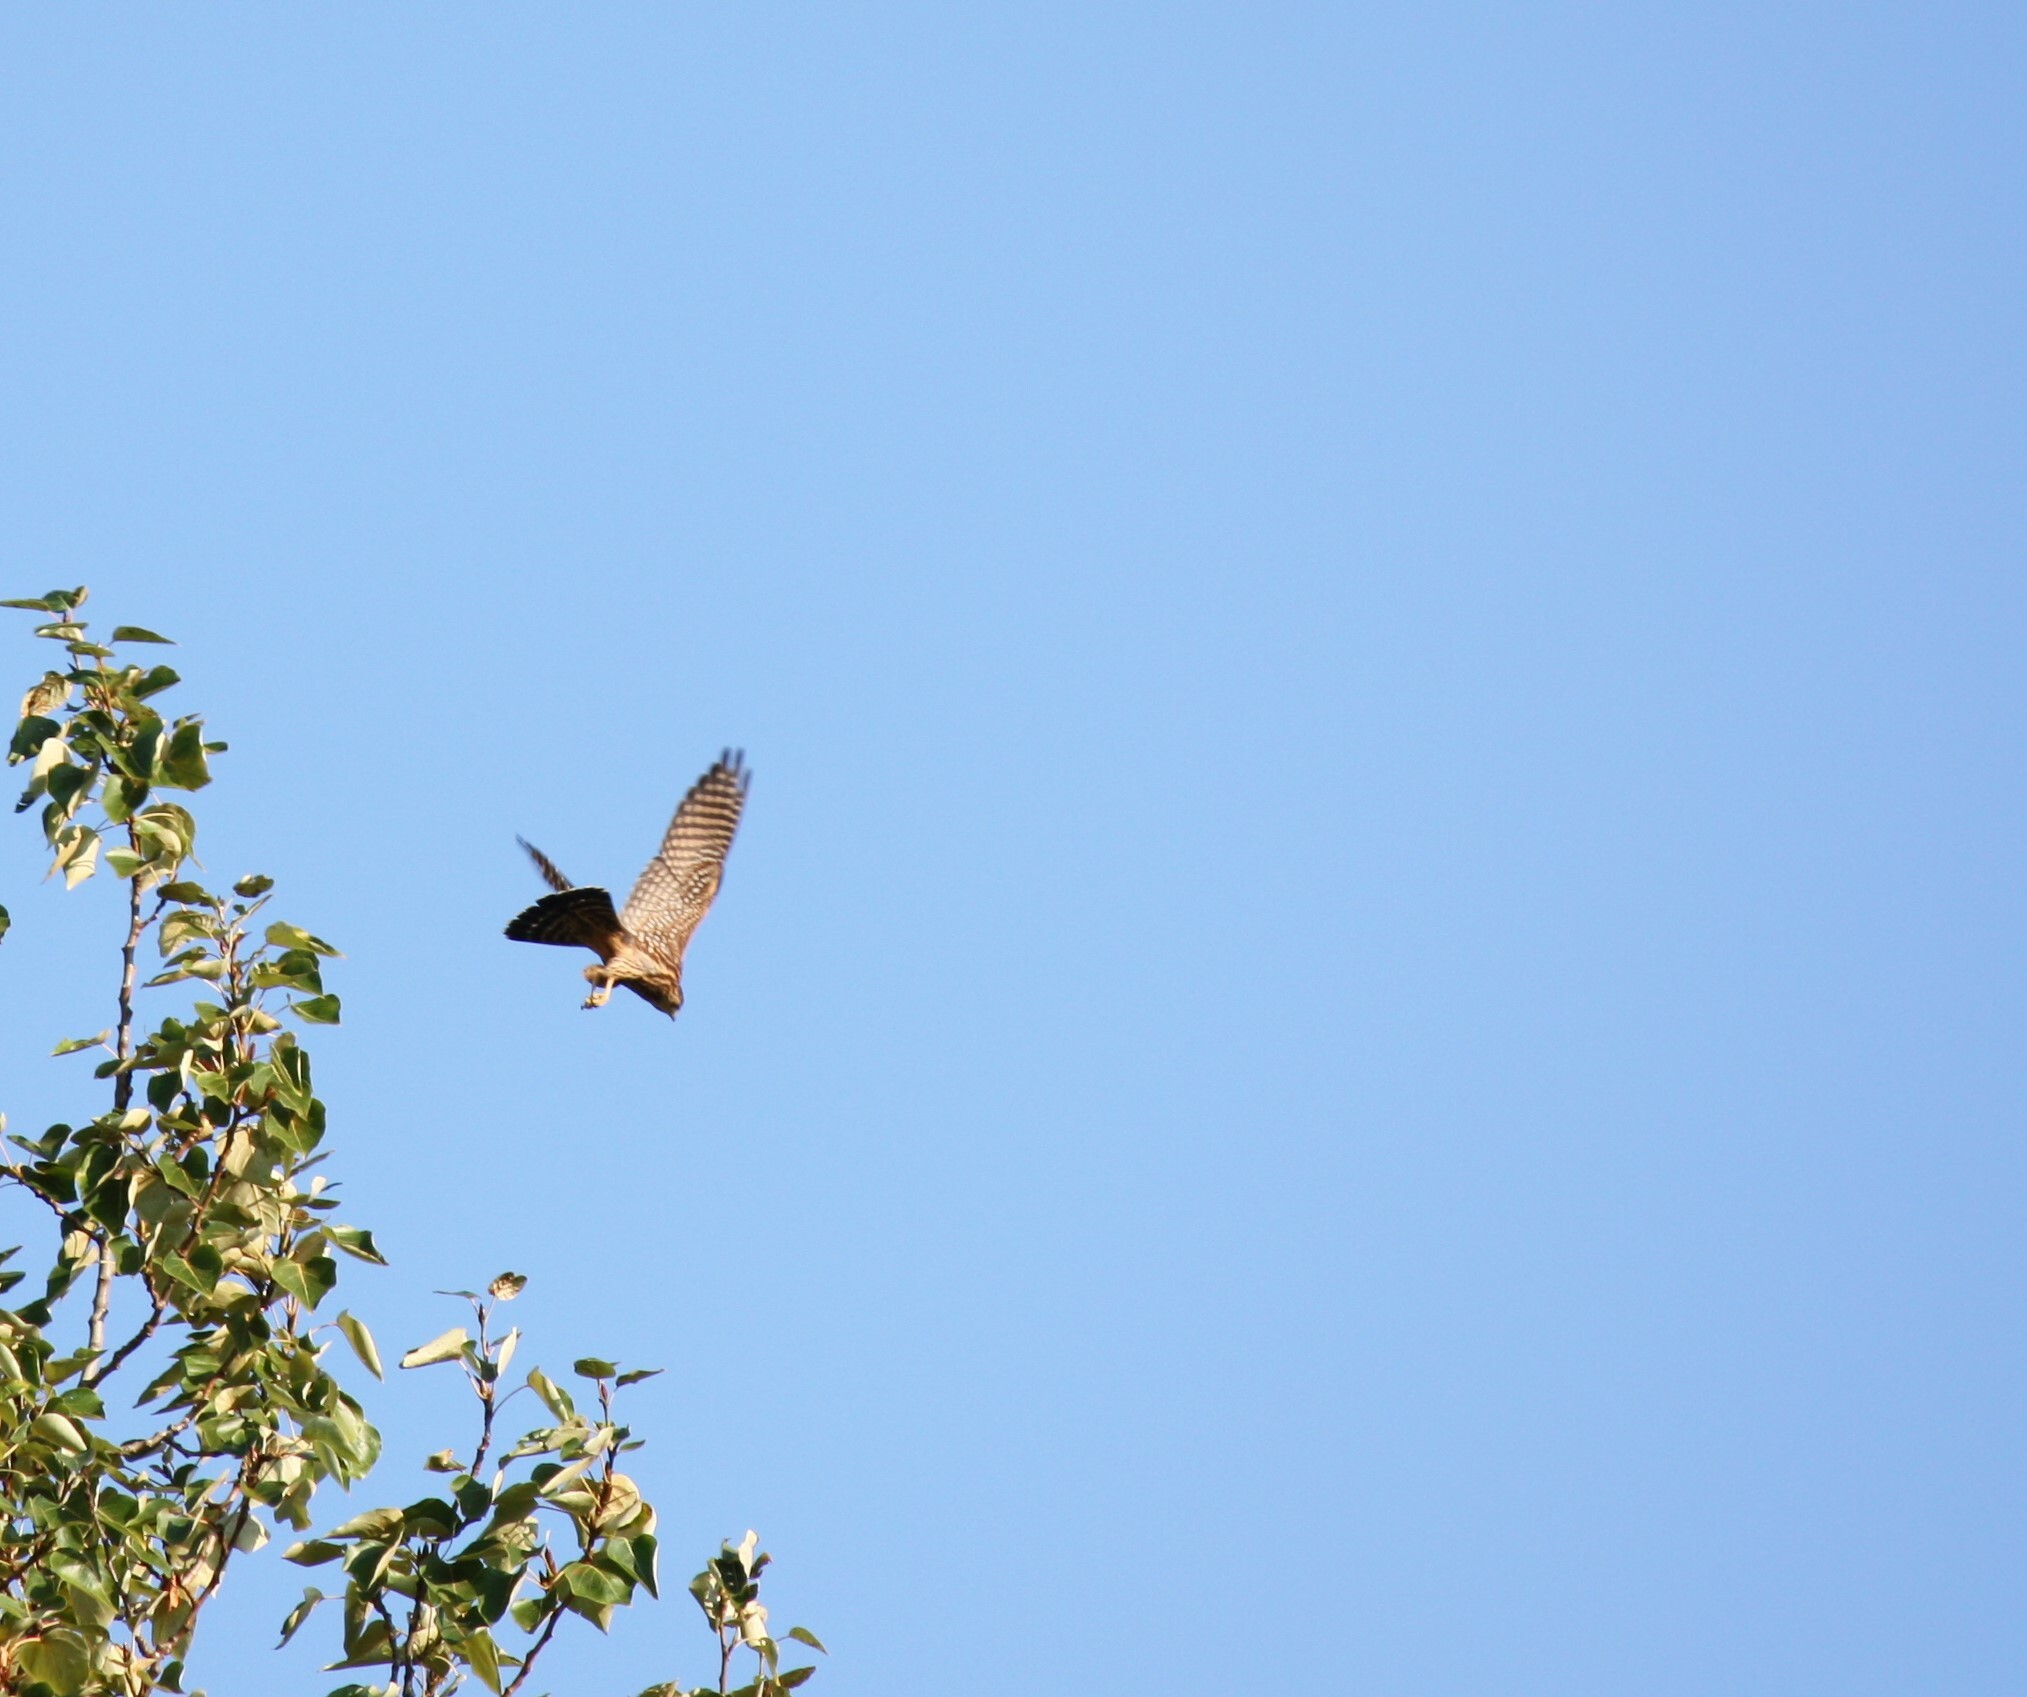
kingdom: Animalia
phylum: Chordata
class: Aves
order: Falconiformes
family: Falconidae
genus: Falco
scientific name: Falco columbarius
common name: Merlin
